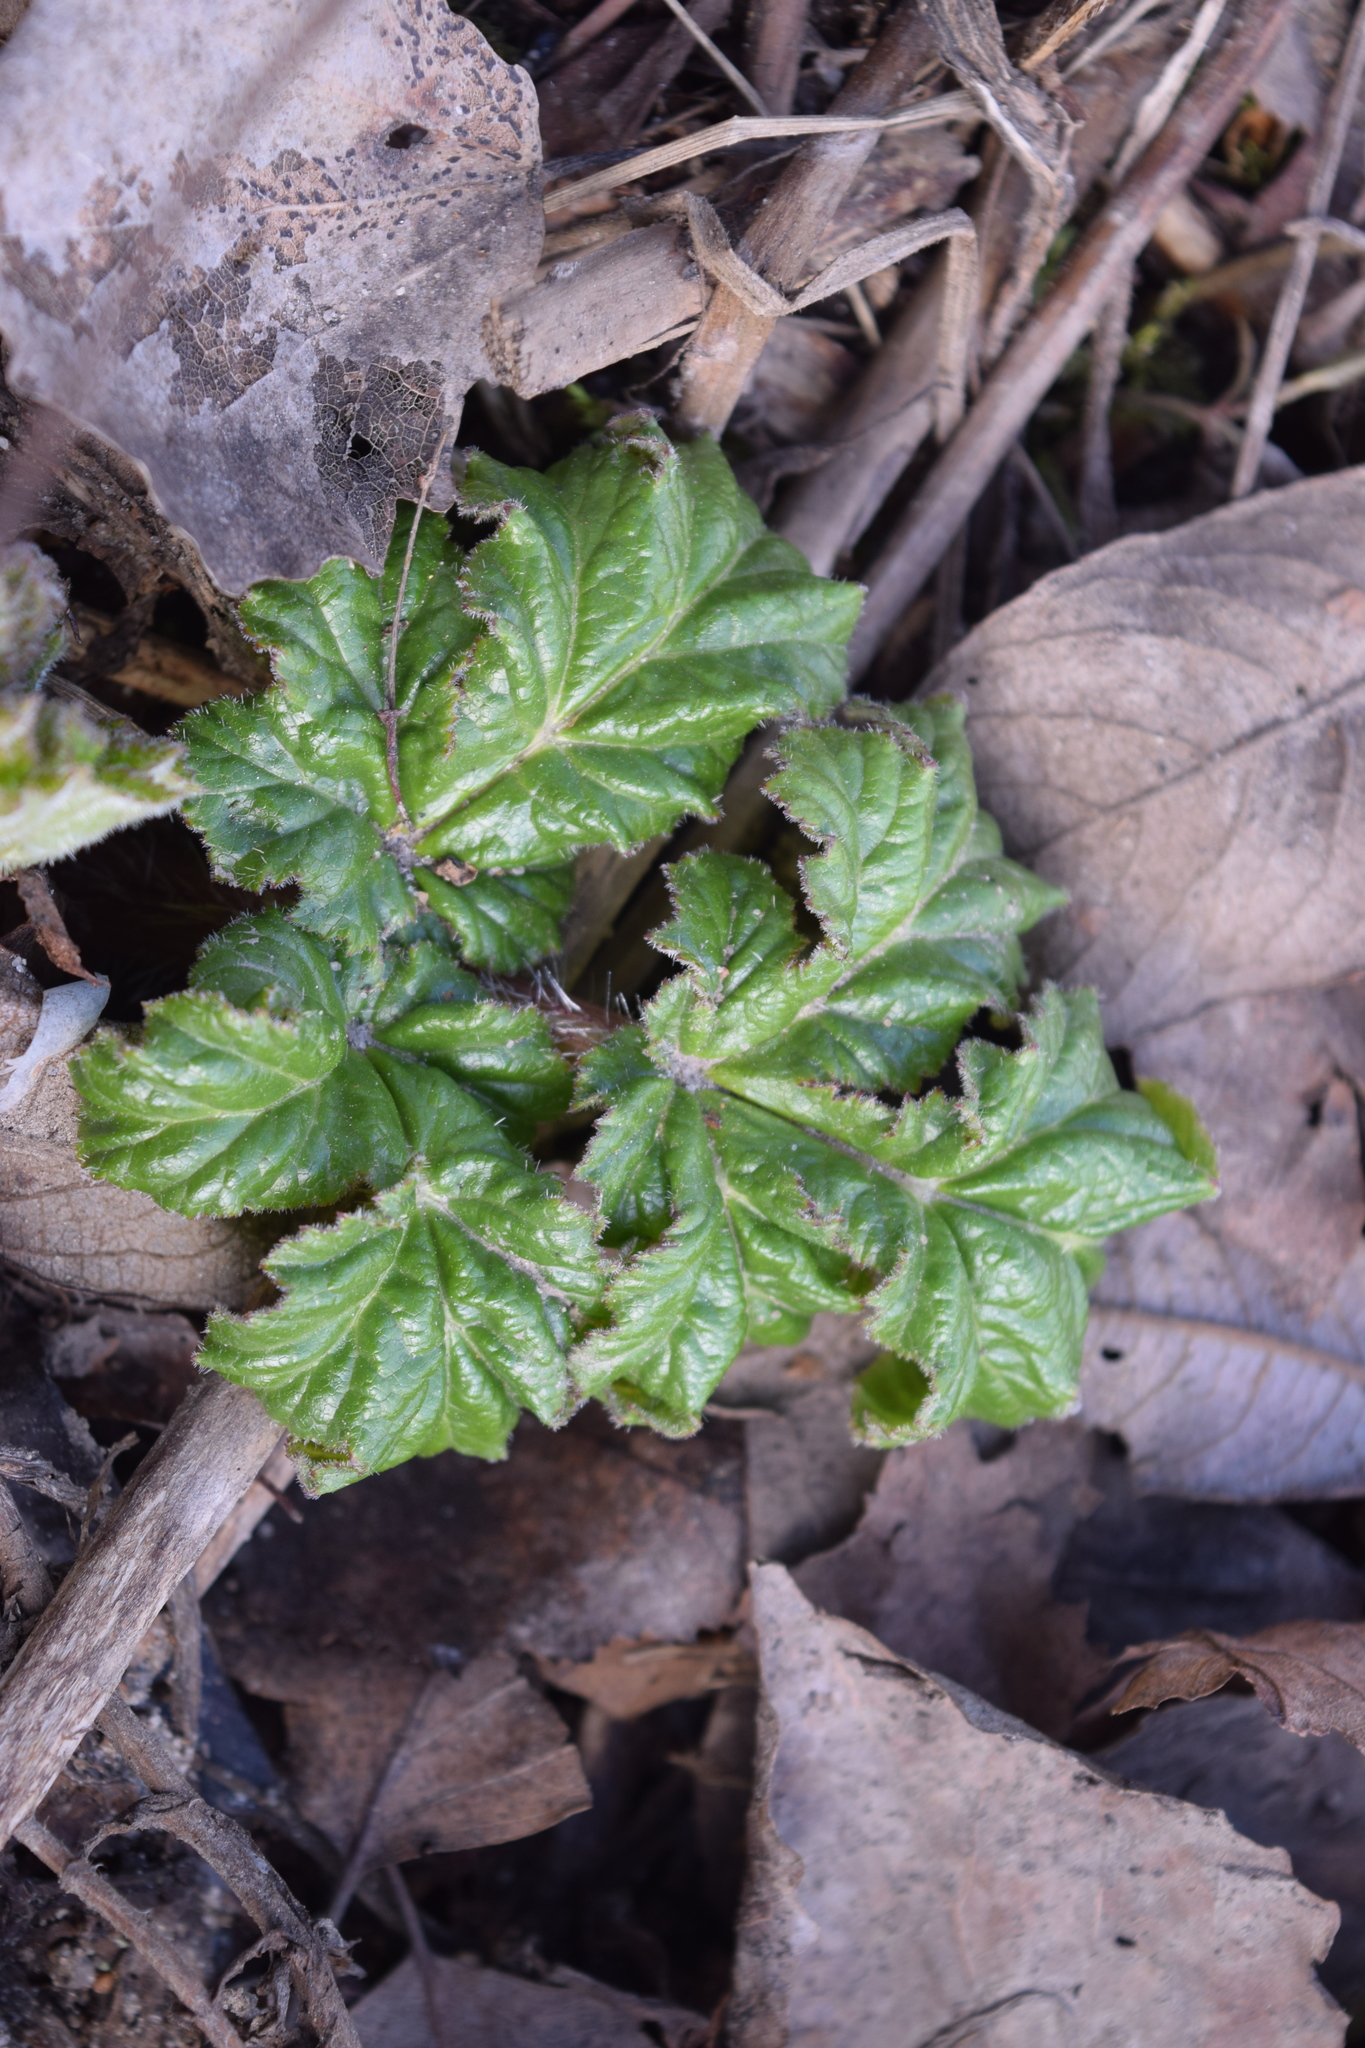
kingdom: Plantae
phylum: Tracheophyta
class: Magnoliopsida
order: Apiales
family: Apiaceae
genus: Heracleum
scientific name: Heracleum sosnowskyi
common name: Sosnowsky's hogweed
